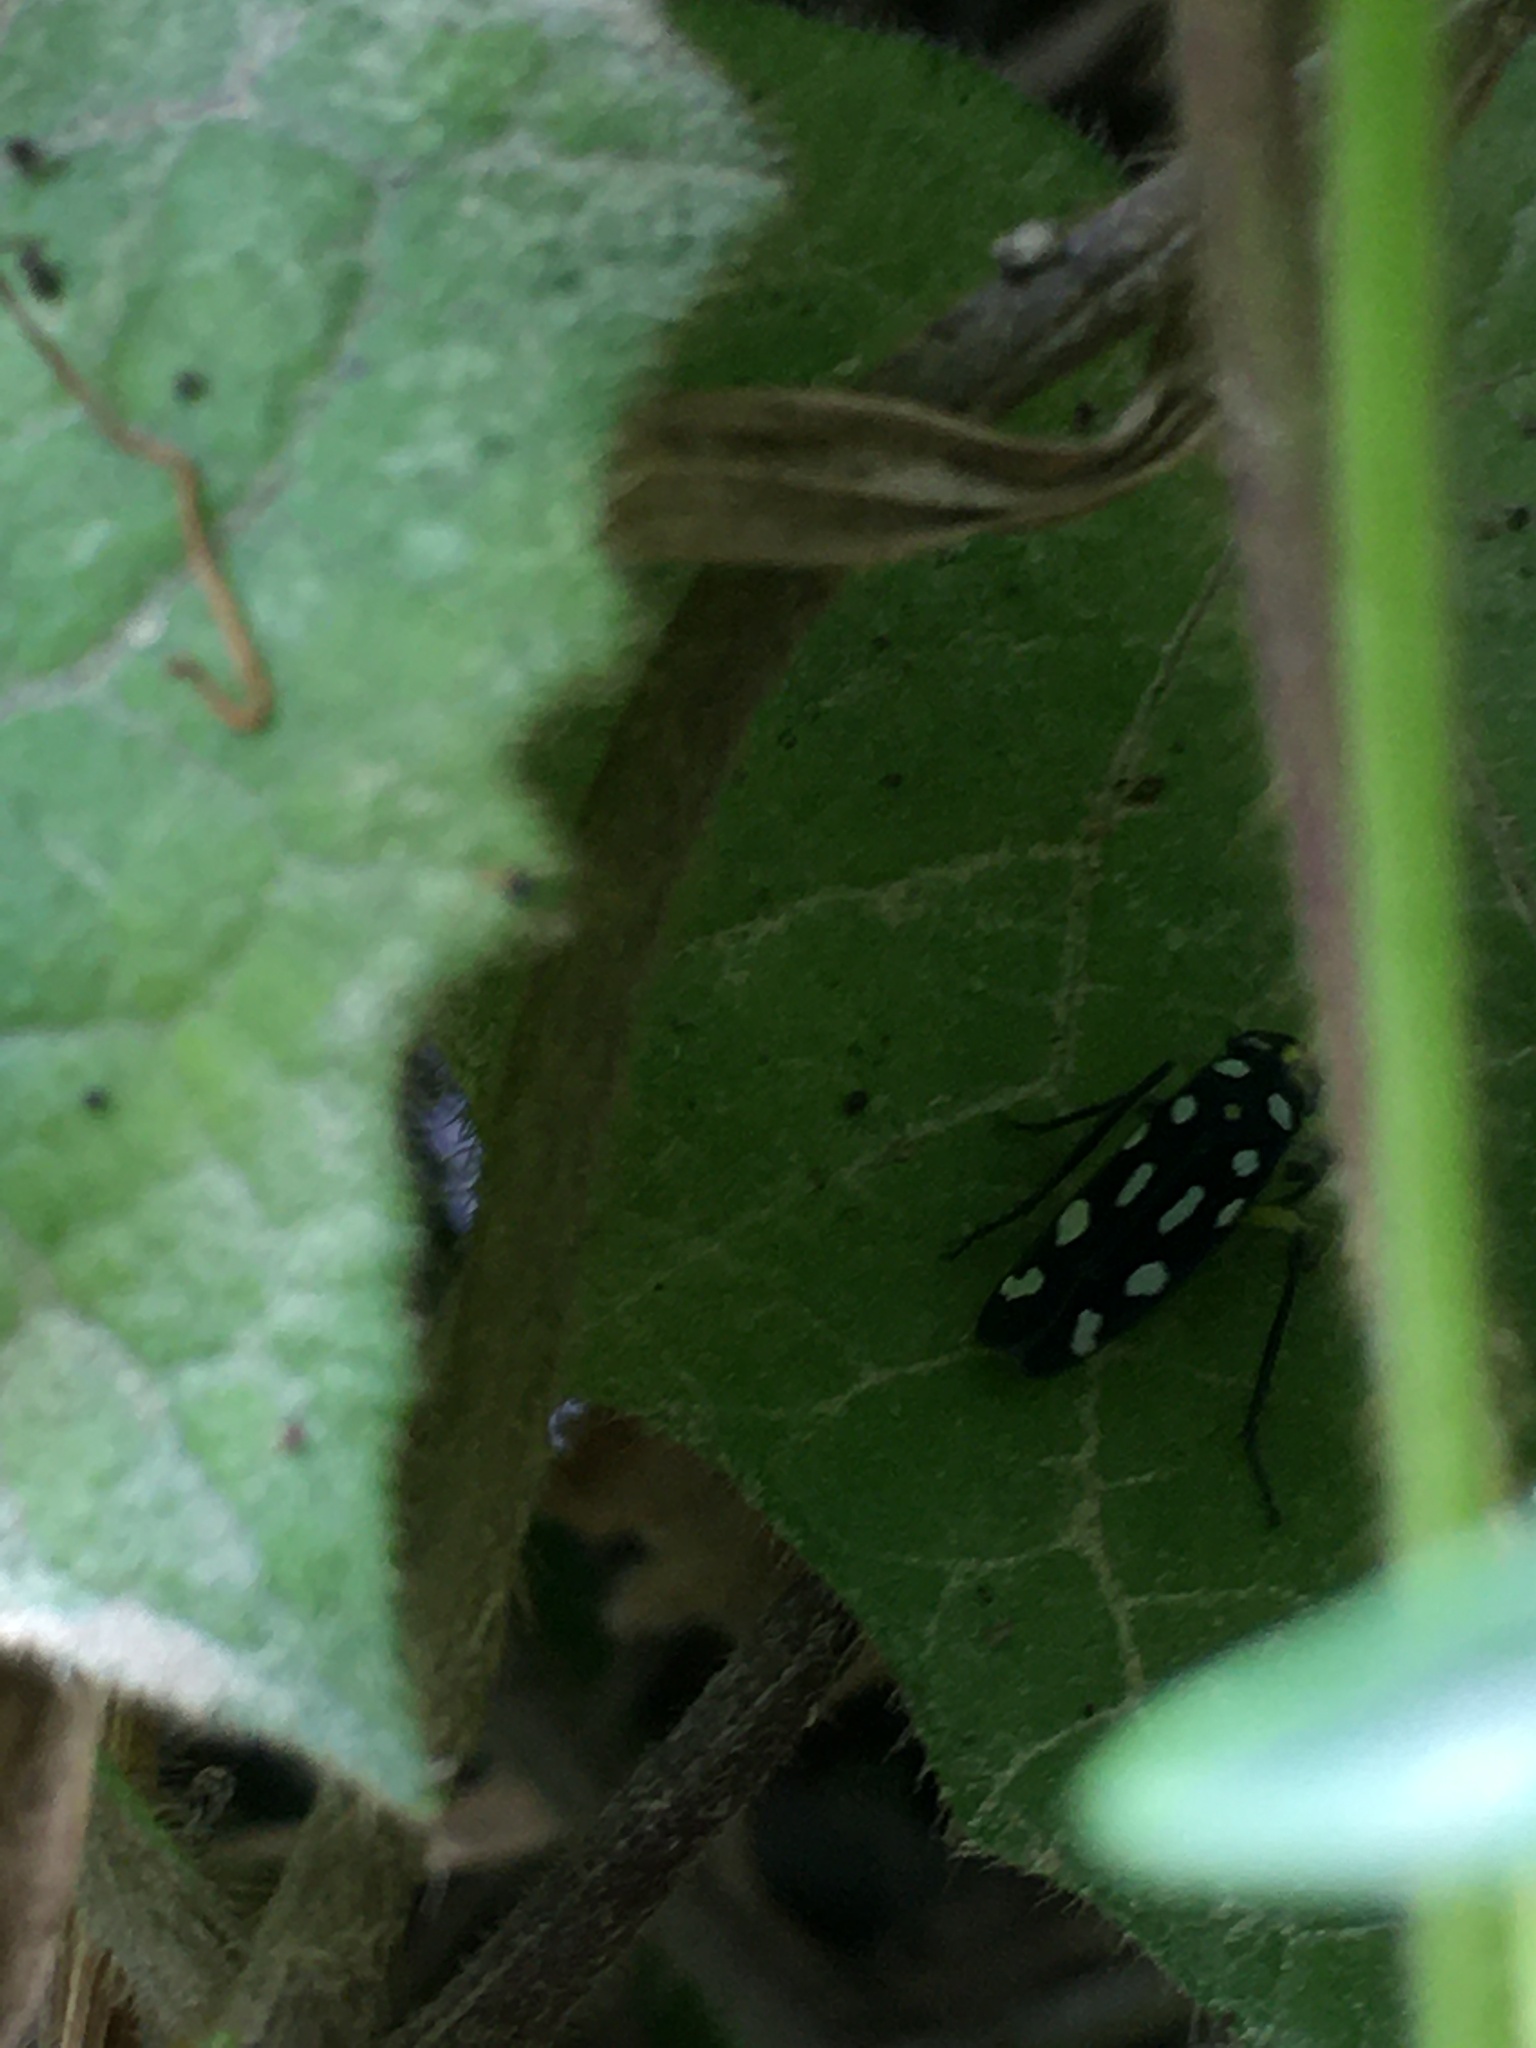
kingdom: Animalia
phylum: Arthropoda
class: Insecta
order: Hemiptera
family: Cicadellidae
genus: Stehlikiana
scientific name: Stehlikiana crassa
